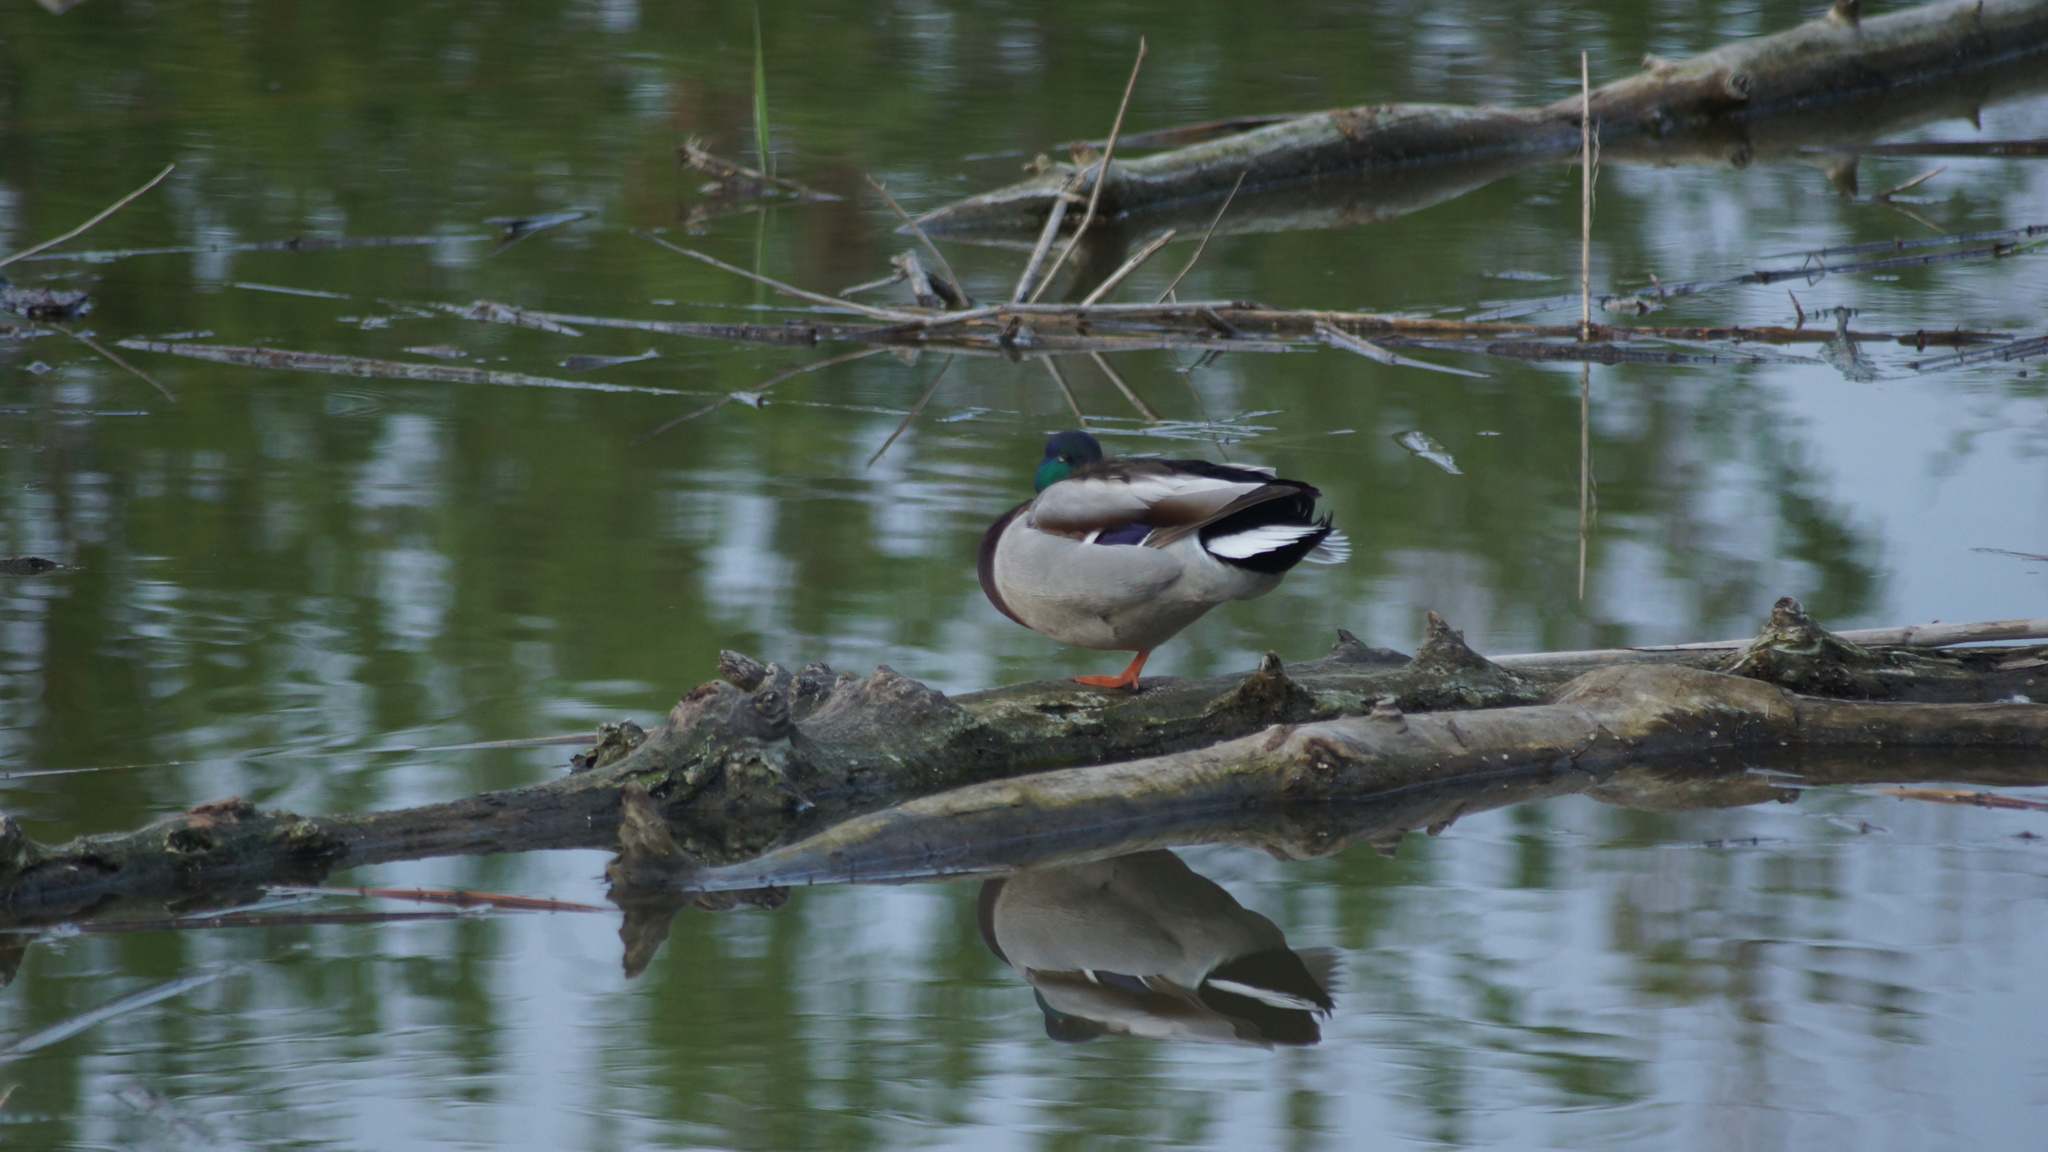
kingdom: Animalia
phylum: Chordata
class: Aves
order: Anseriformes
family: Anatidae
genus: Anas
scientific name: Anas platyrhynchos
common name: Mallard
